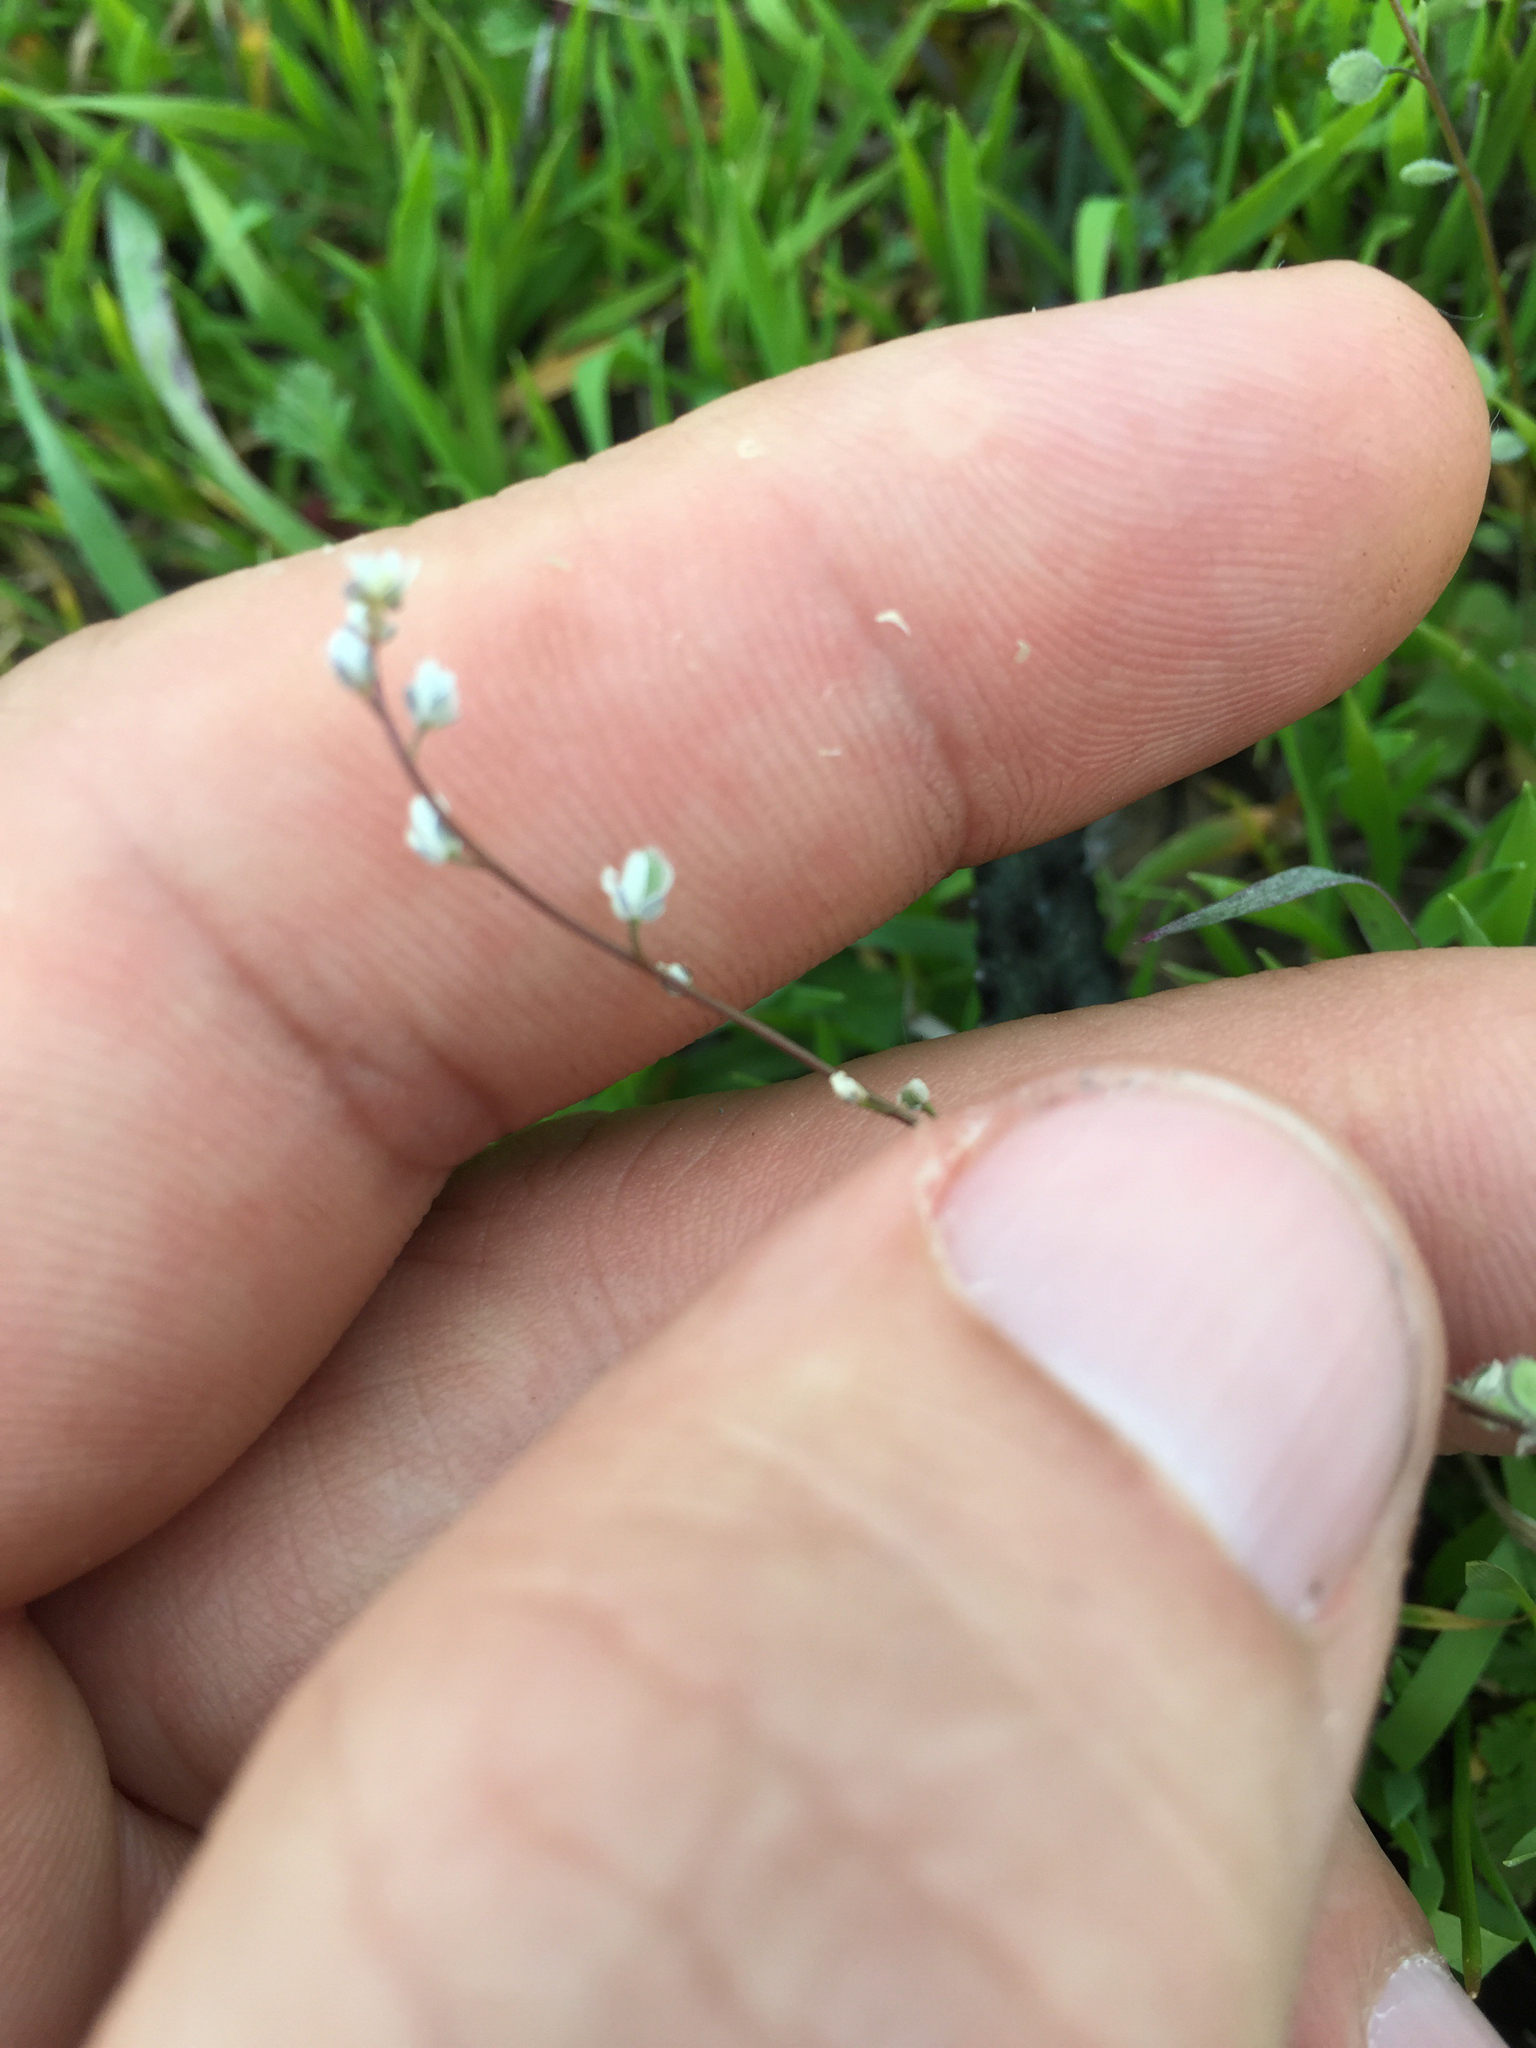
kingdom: Plantae
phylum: Tracheophyta
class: Magnoliopsida
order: Brassicales
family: Brassicaceae
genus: Athysanus
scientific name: Athysanus pusillus
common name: Common sandweed
